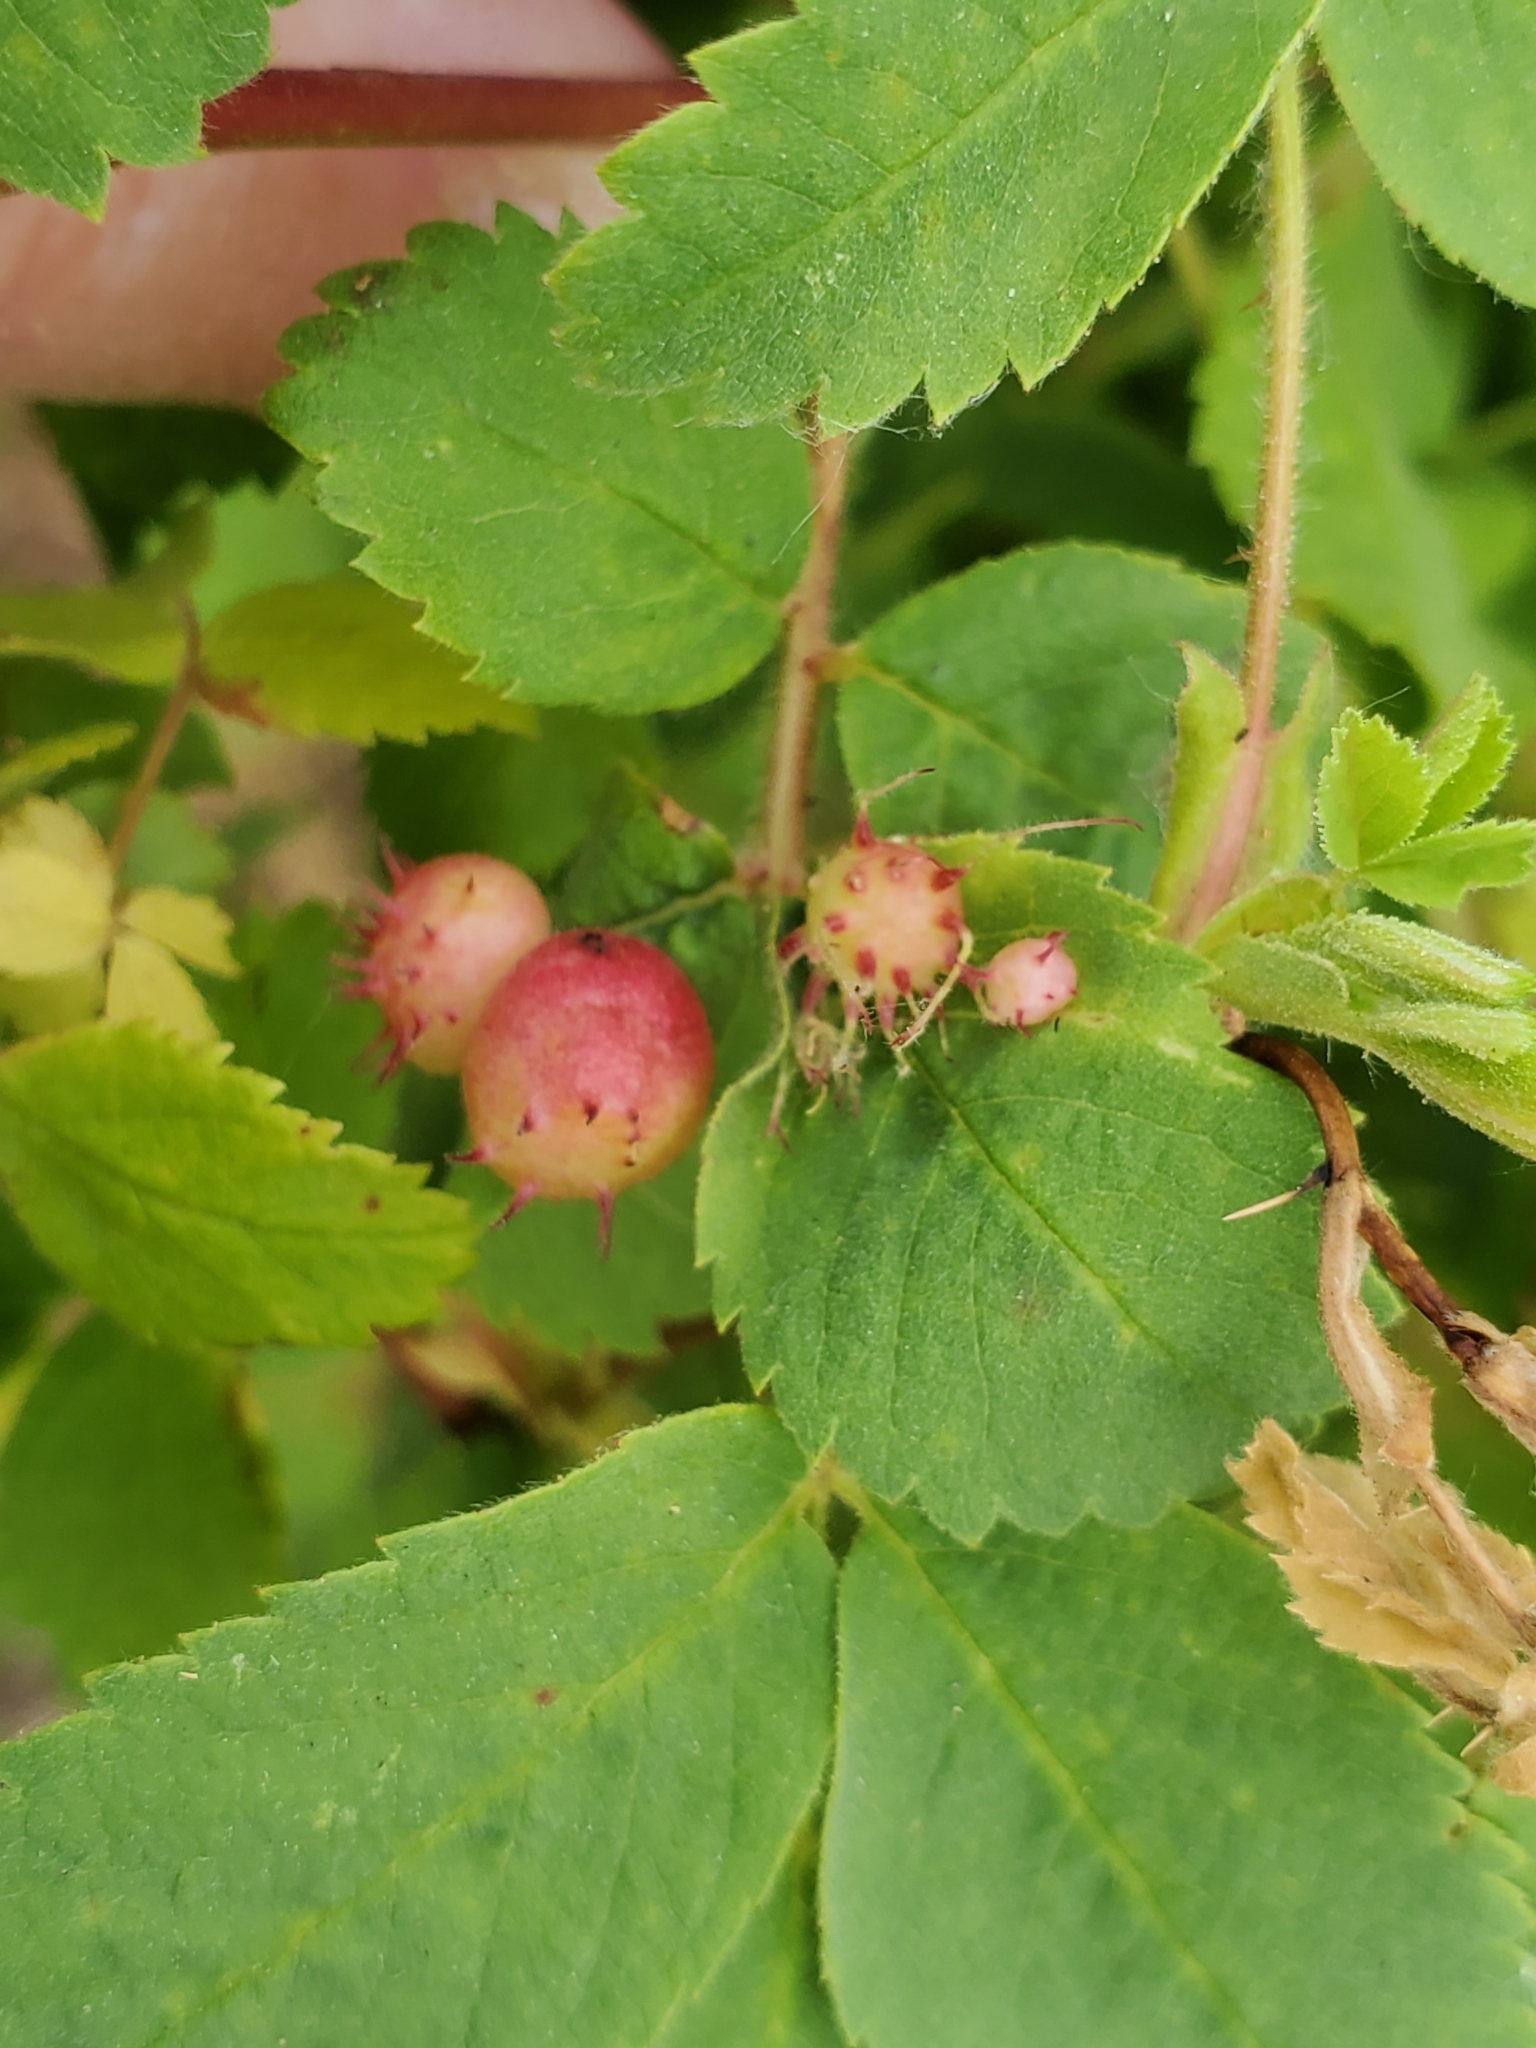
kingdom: Animalia
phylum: Arthropoda
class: Insecta
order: Hymenoptera
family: Cynipidae
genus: Diplolepis
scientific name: Diplolepis polita
